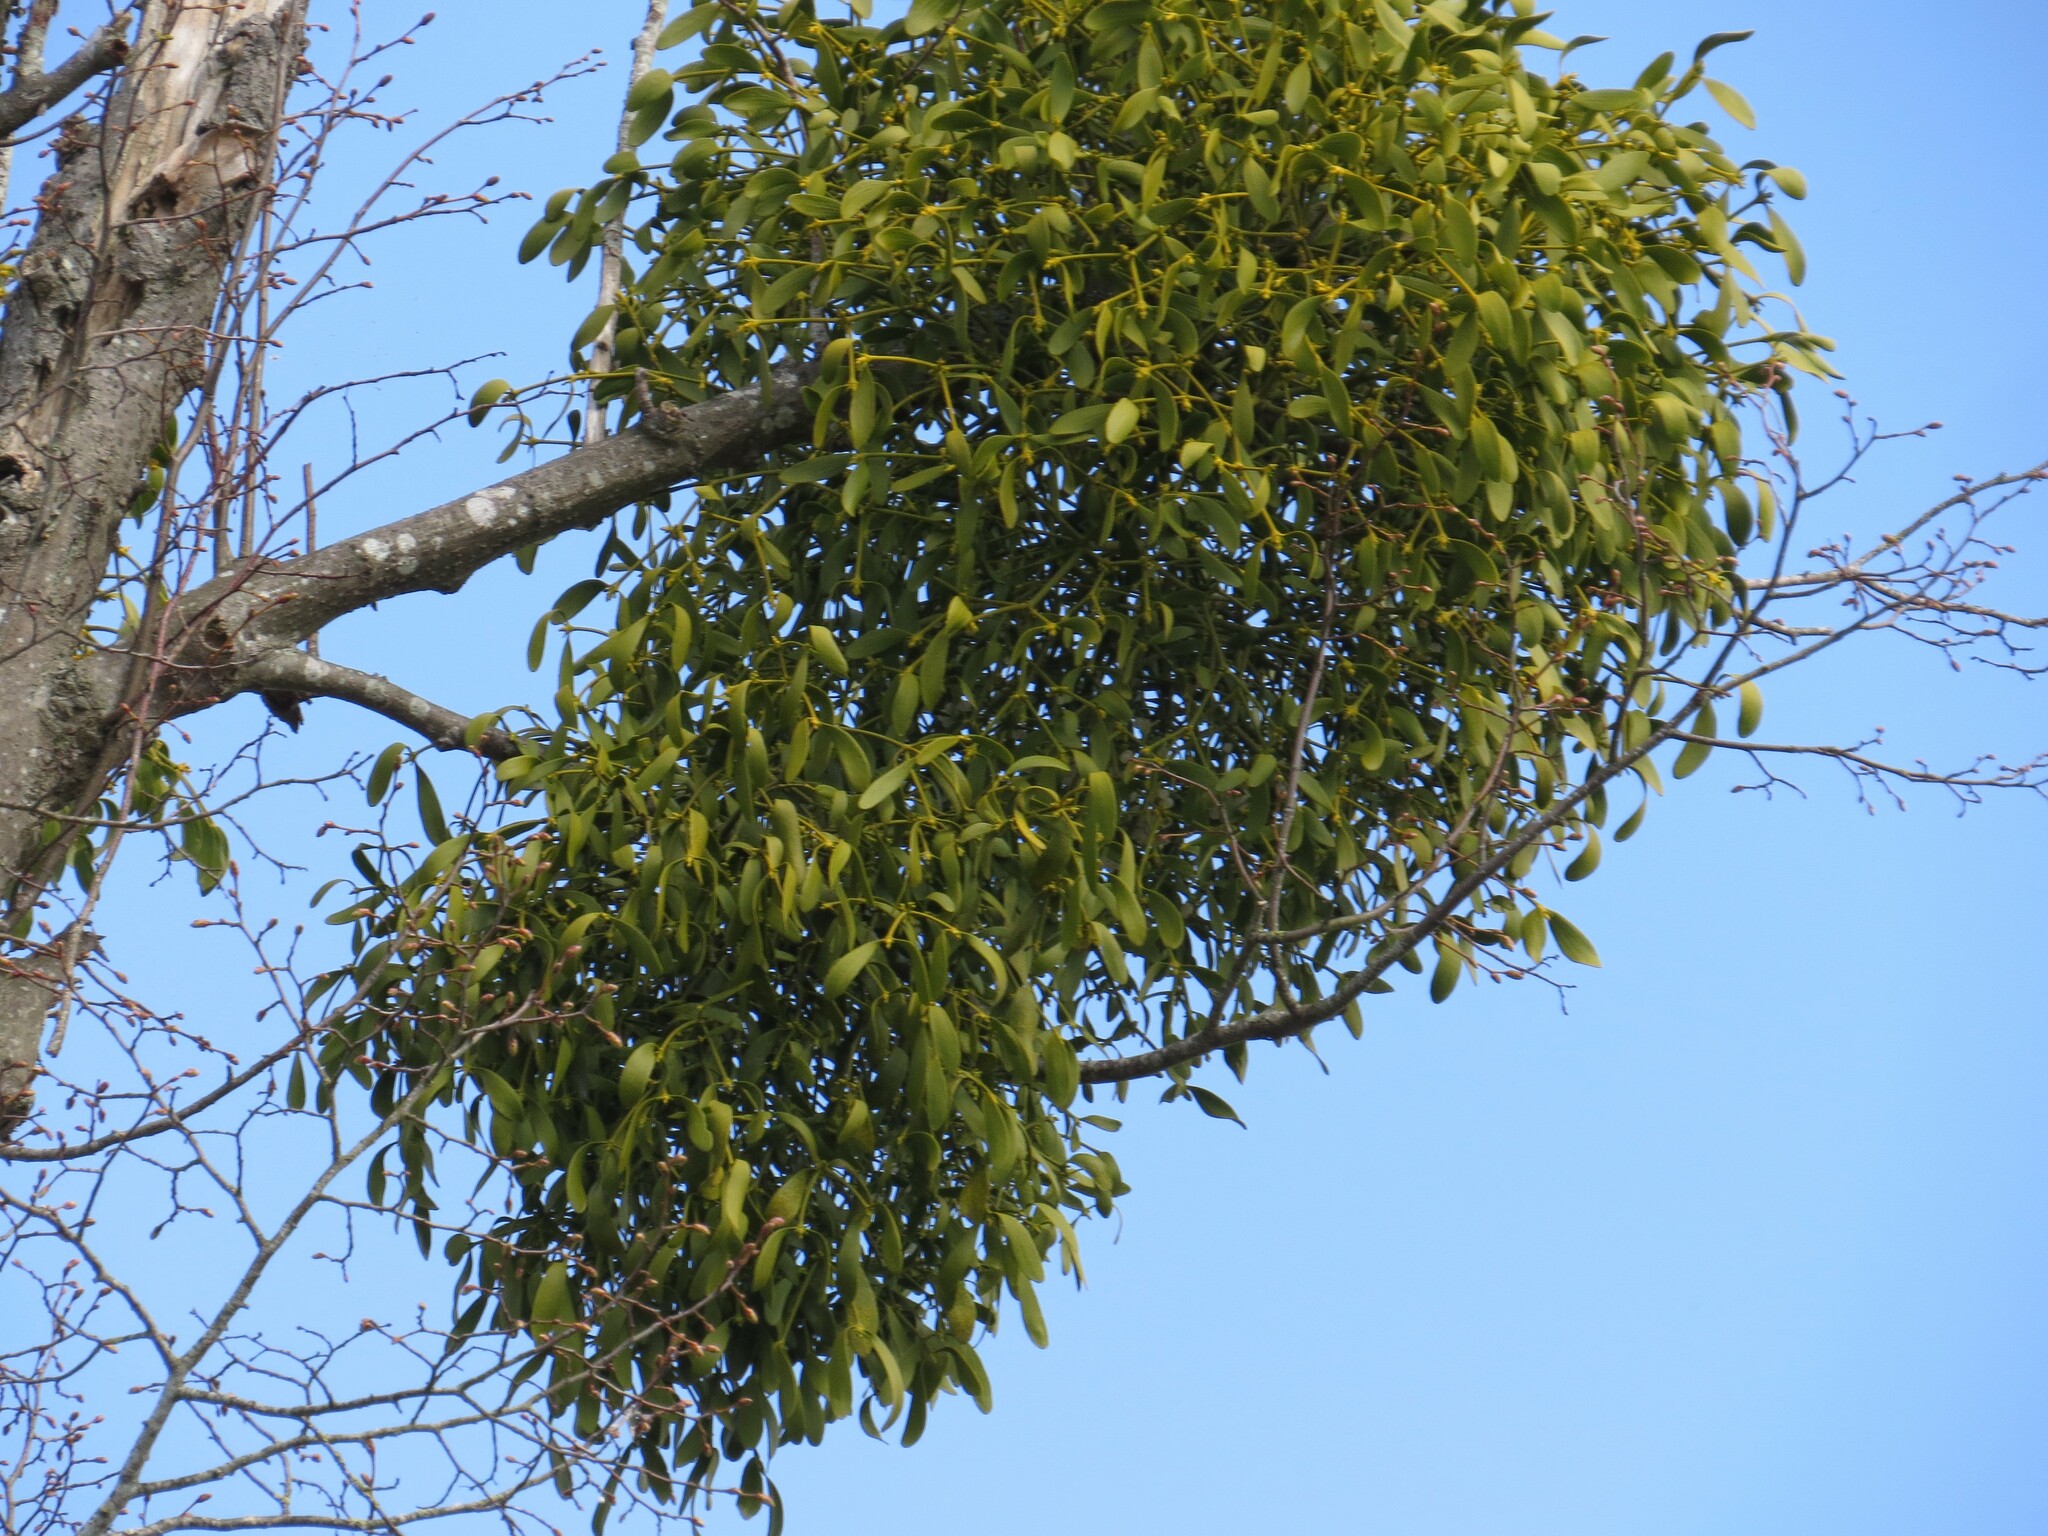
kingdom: Plantae
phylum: Tracheophyta
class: Magnoliopsida
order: Santalales
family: Viscaceae
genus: Viscum
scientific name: Viscum album
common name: Mistletoe
